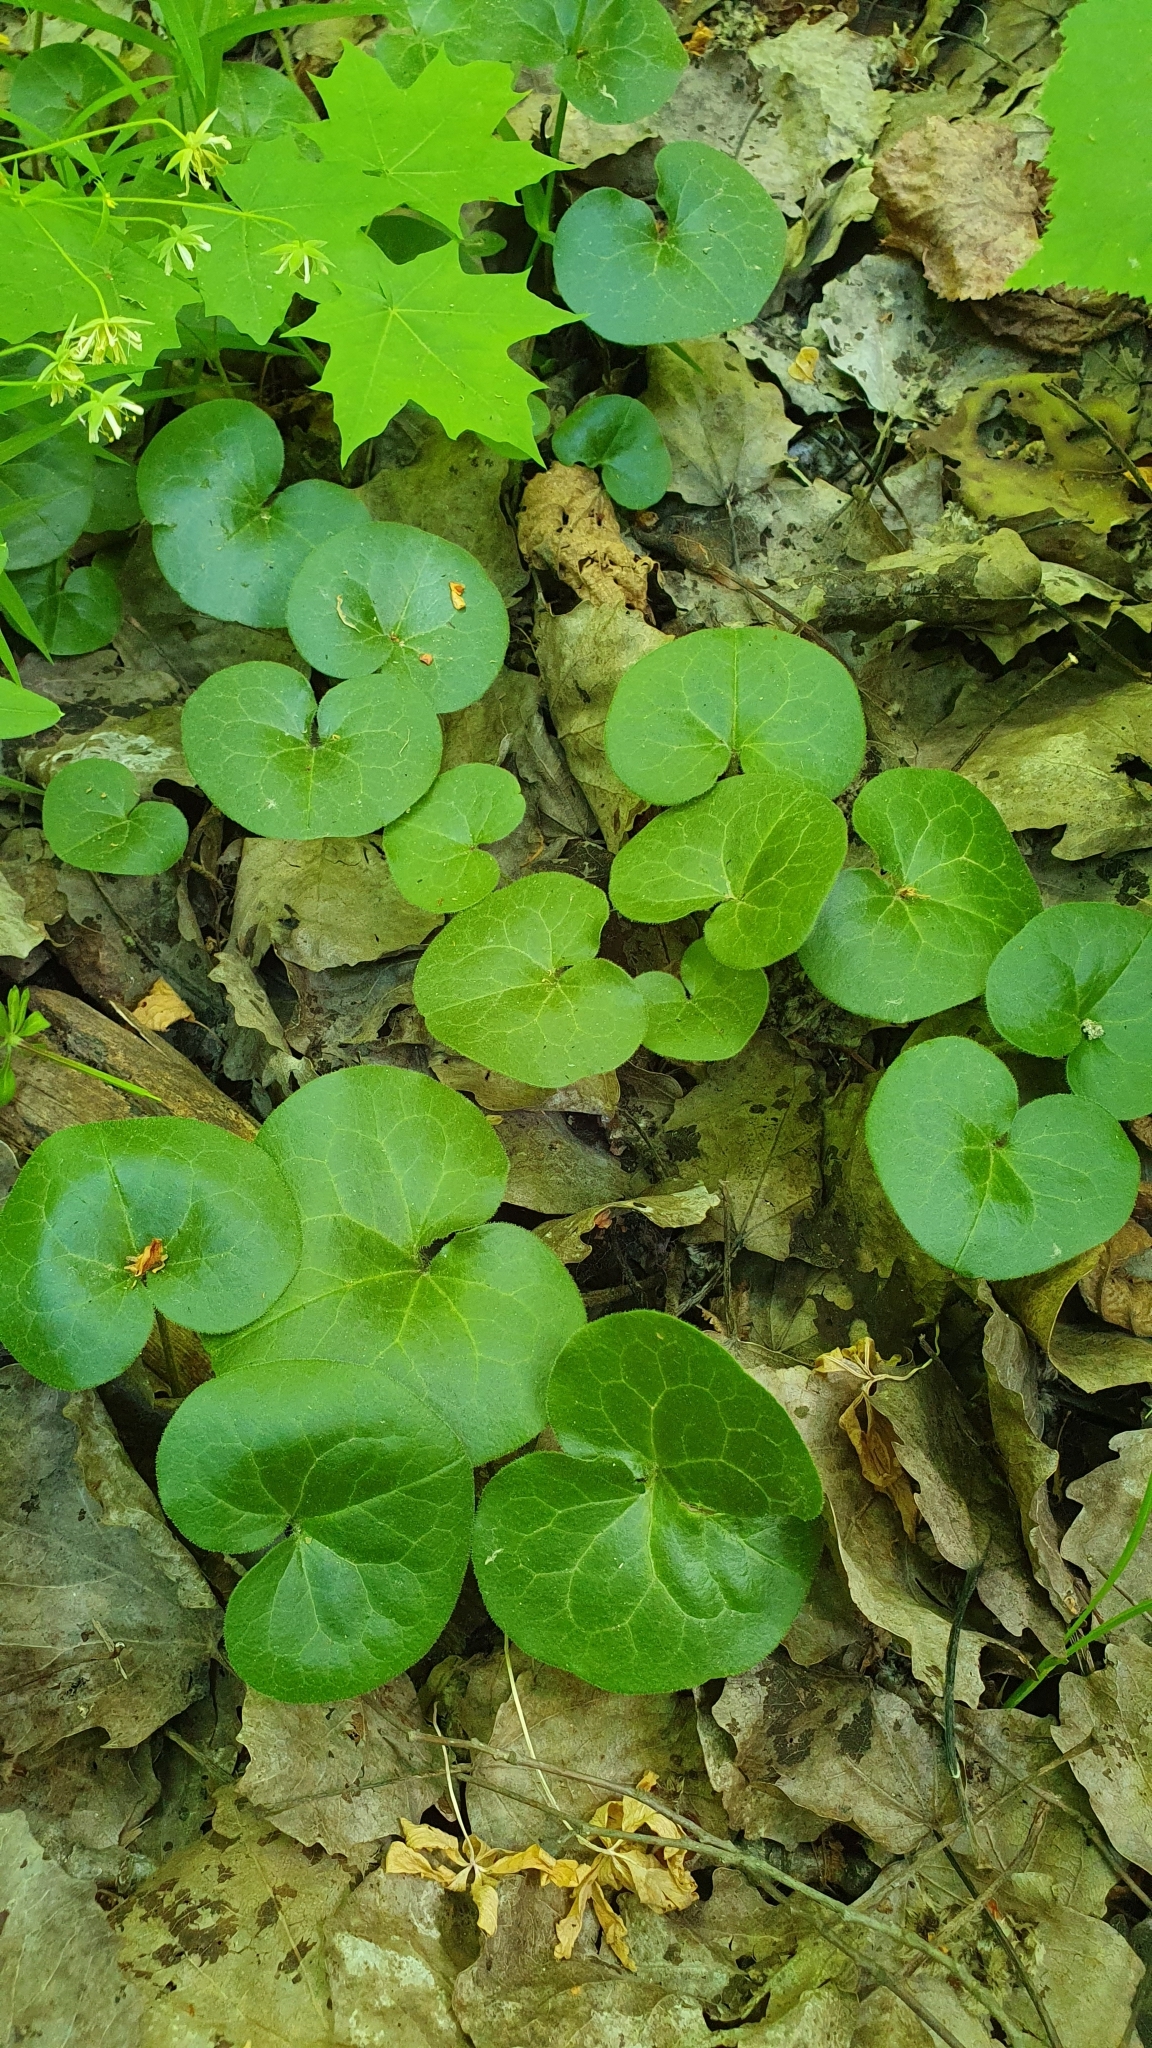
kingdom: Plantae
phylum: Tracheophyta
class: Magnoliopsida
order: Piperales
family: Aristolochiaceae
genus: Asarum
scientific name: Asarum europaeum
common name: Asarabacca
